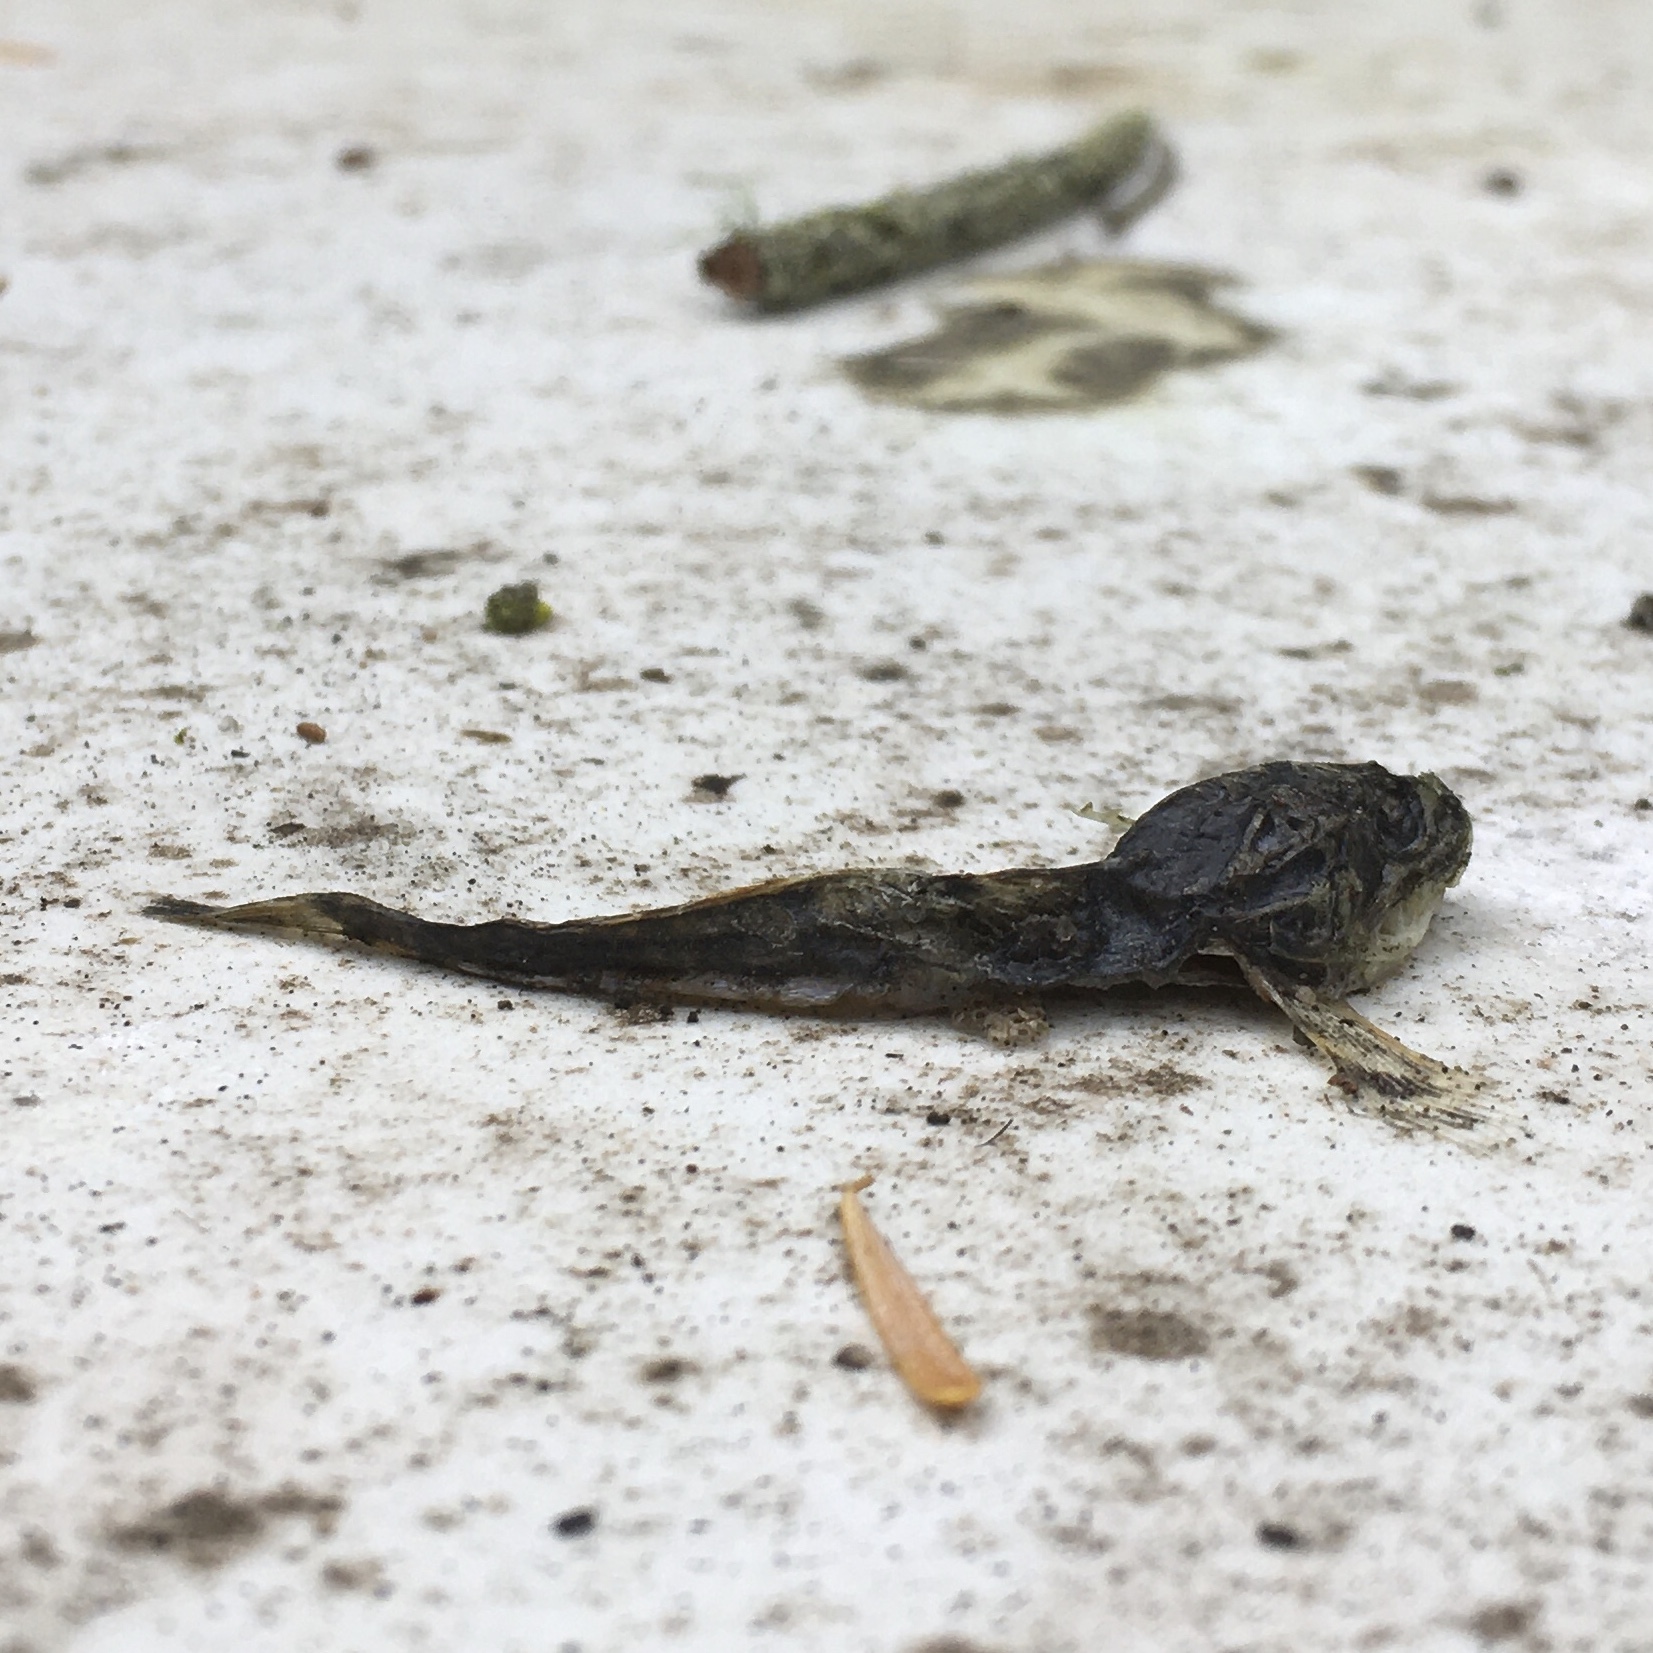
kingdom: Animalia
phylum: Chordata
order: Scorpaeniformes
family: Cottidae
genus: Leptocottus
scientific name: Leptocottus armatus
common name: Pacific staghorn sculpin
